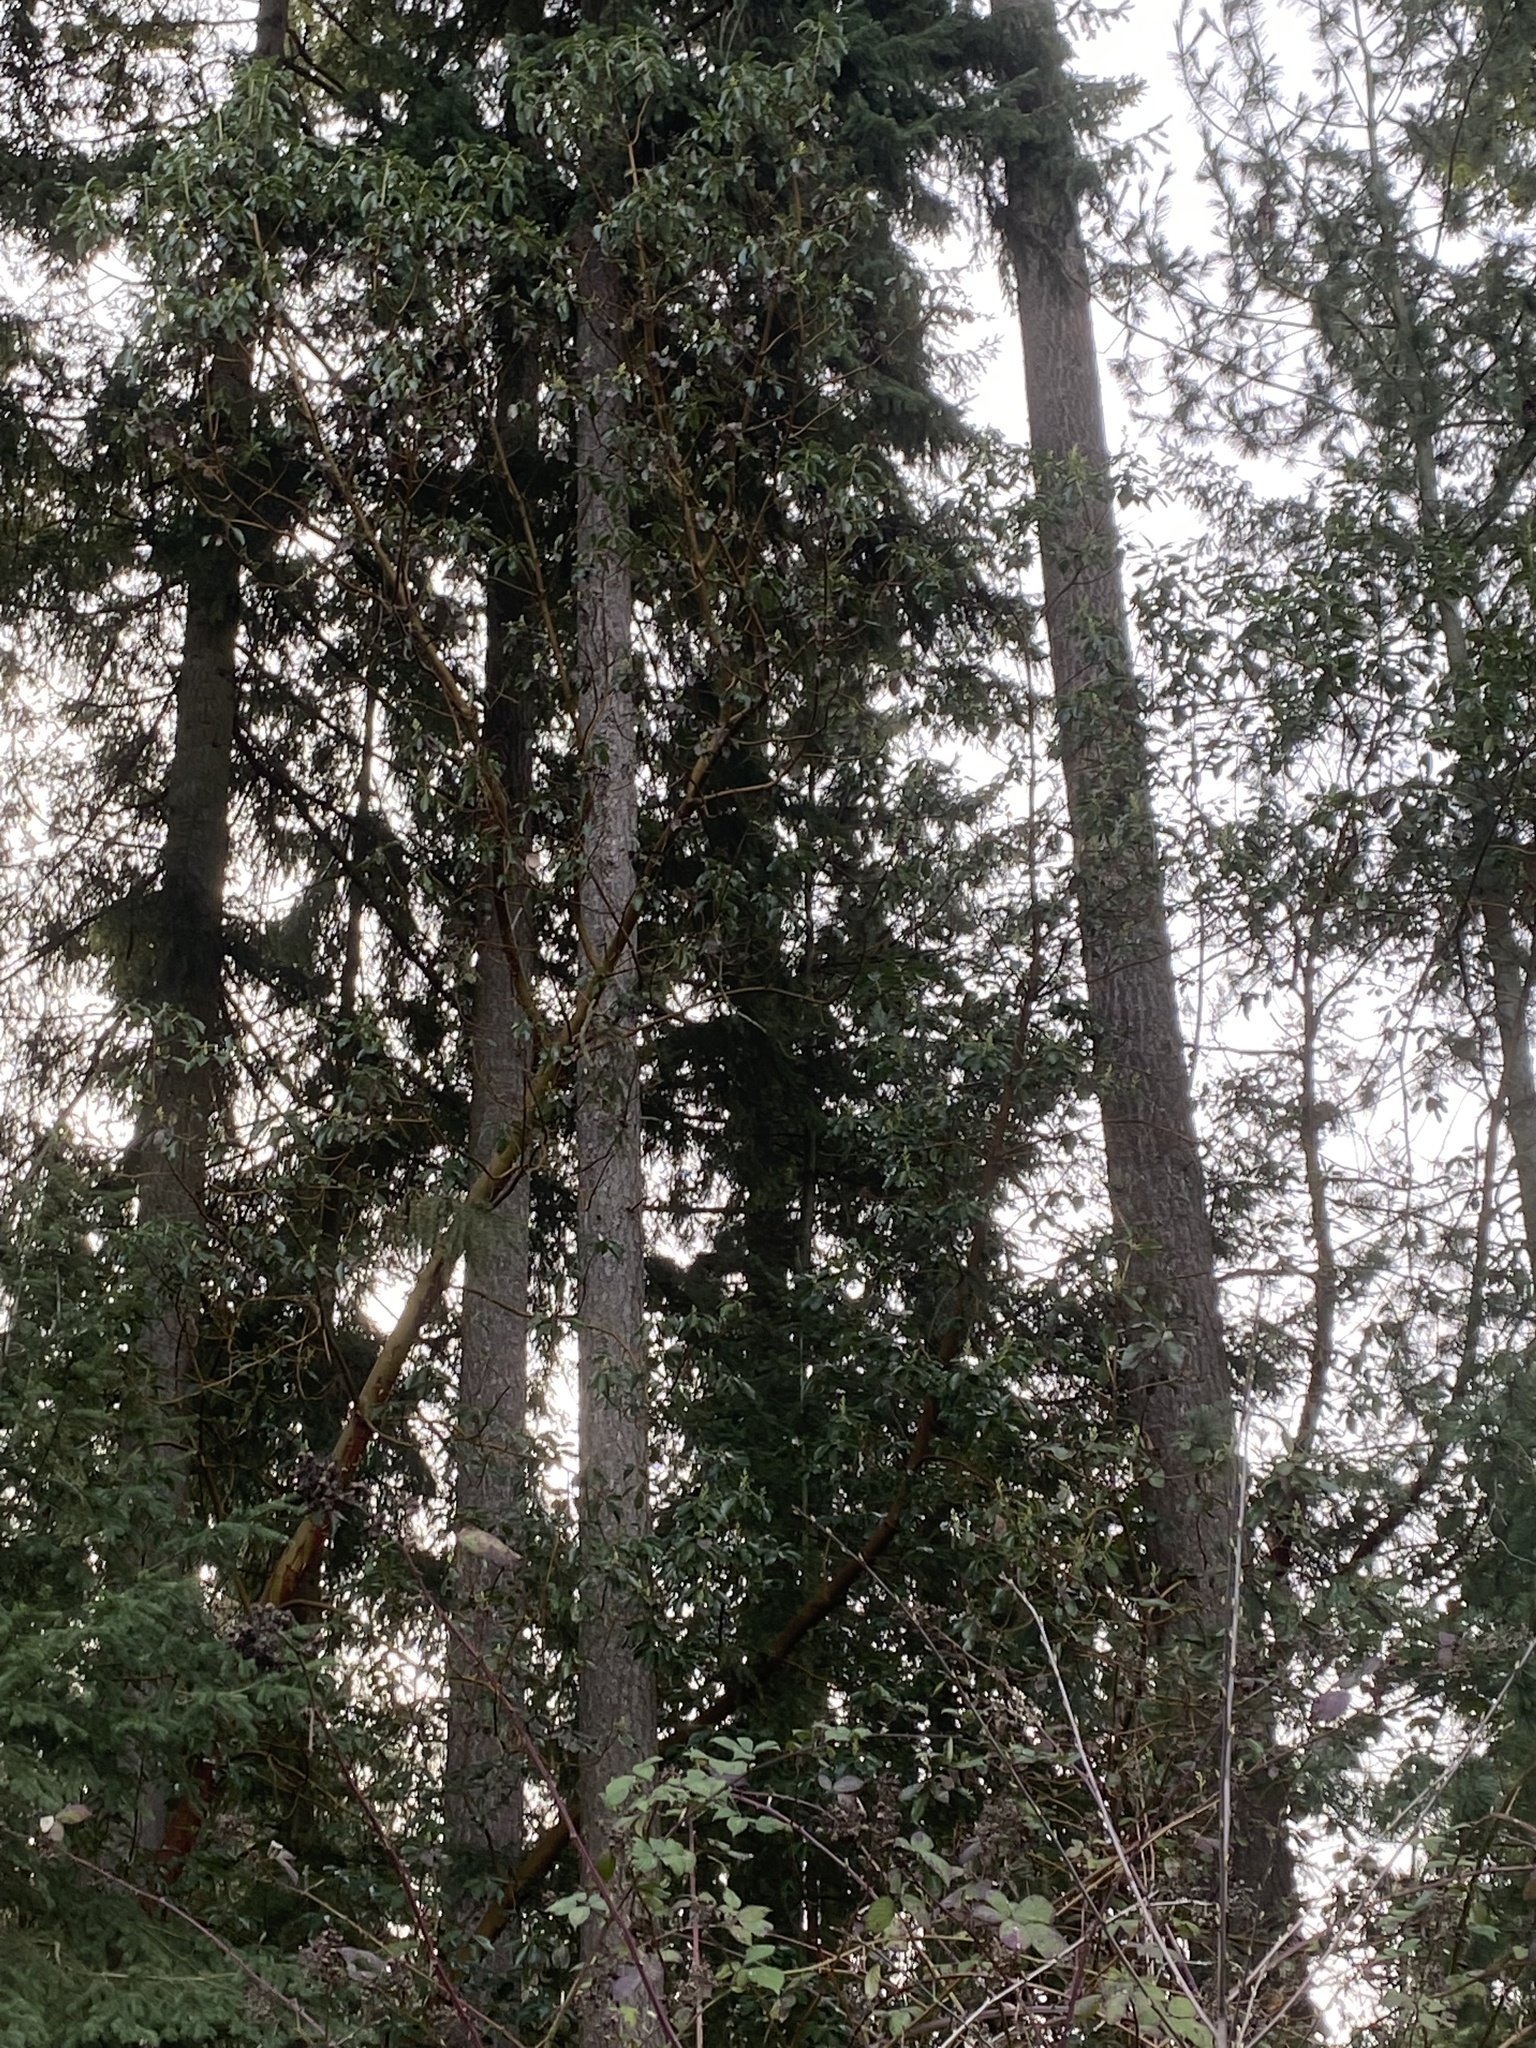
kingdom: Plantae
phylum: Tracheophyta
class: Magnoliopsida
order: Ericales
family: Ericaceae
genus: Arbutus
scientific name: Arbutus menziesii
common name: Pacific madrone
